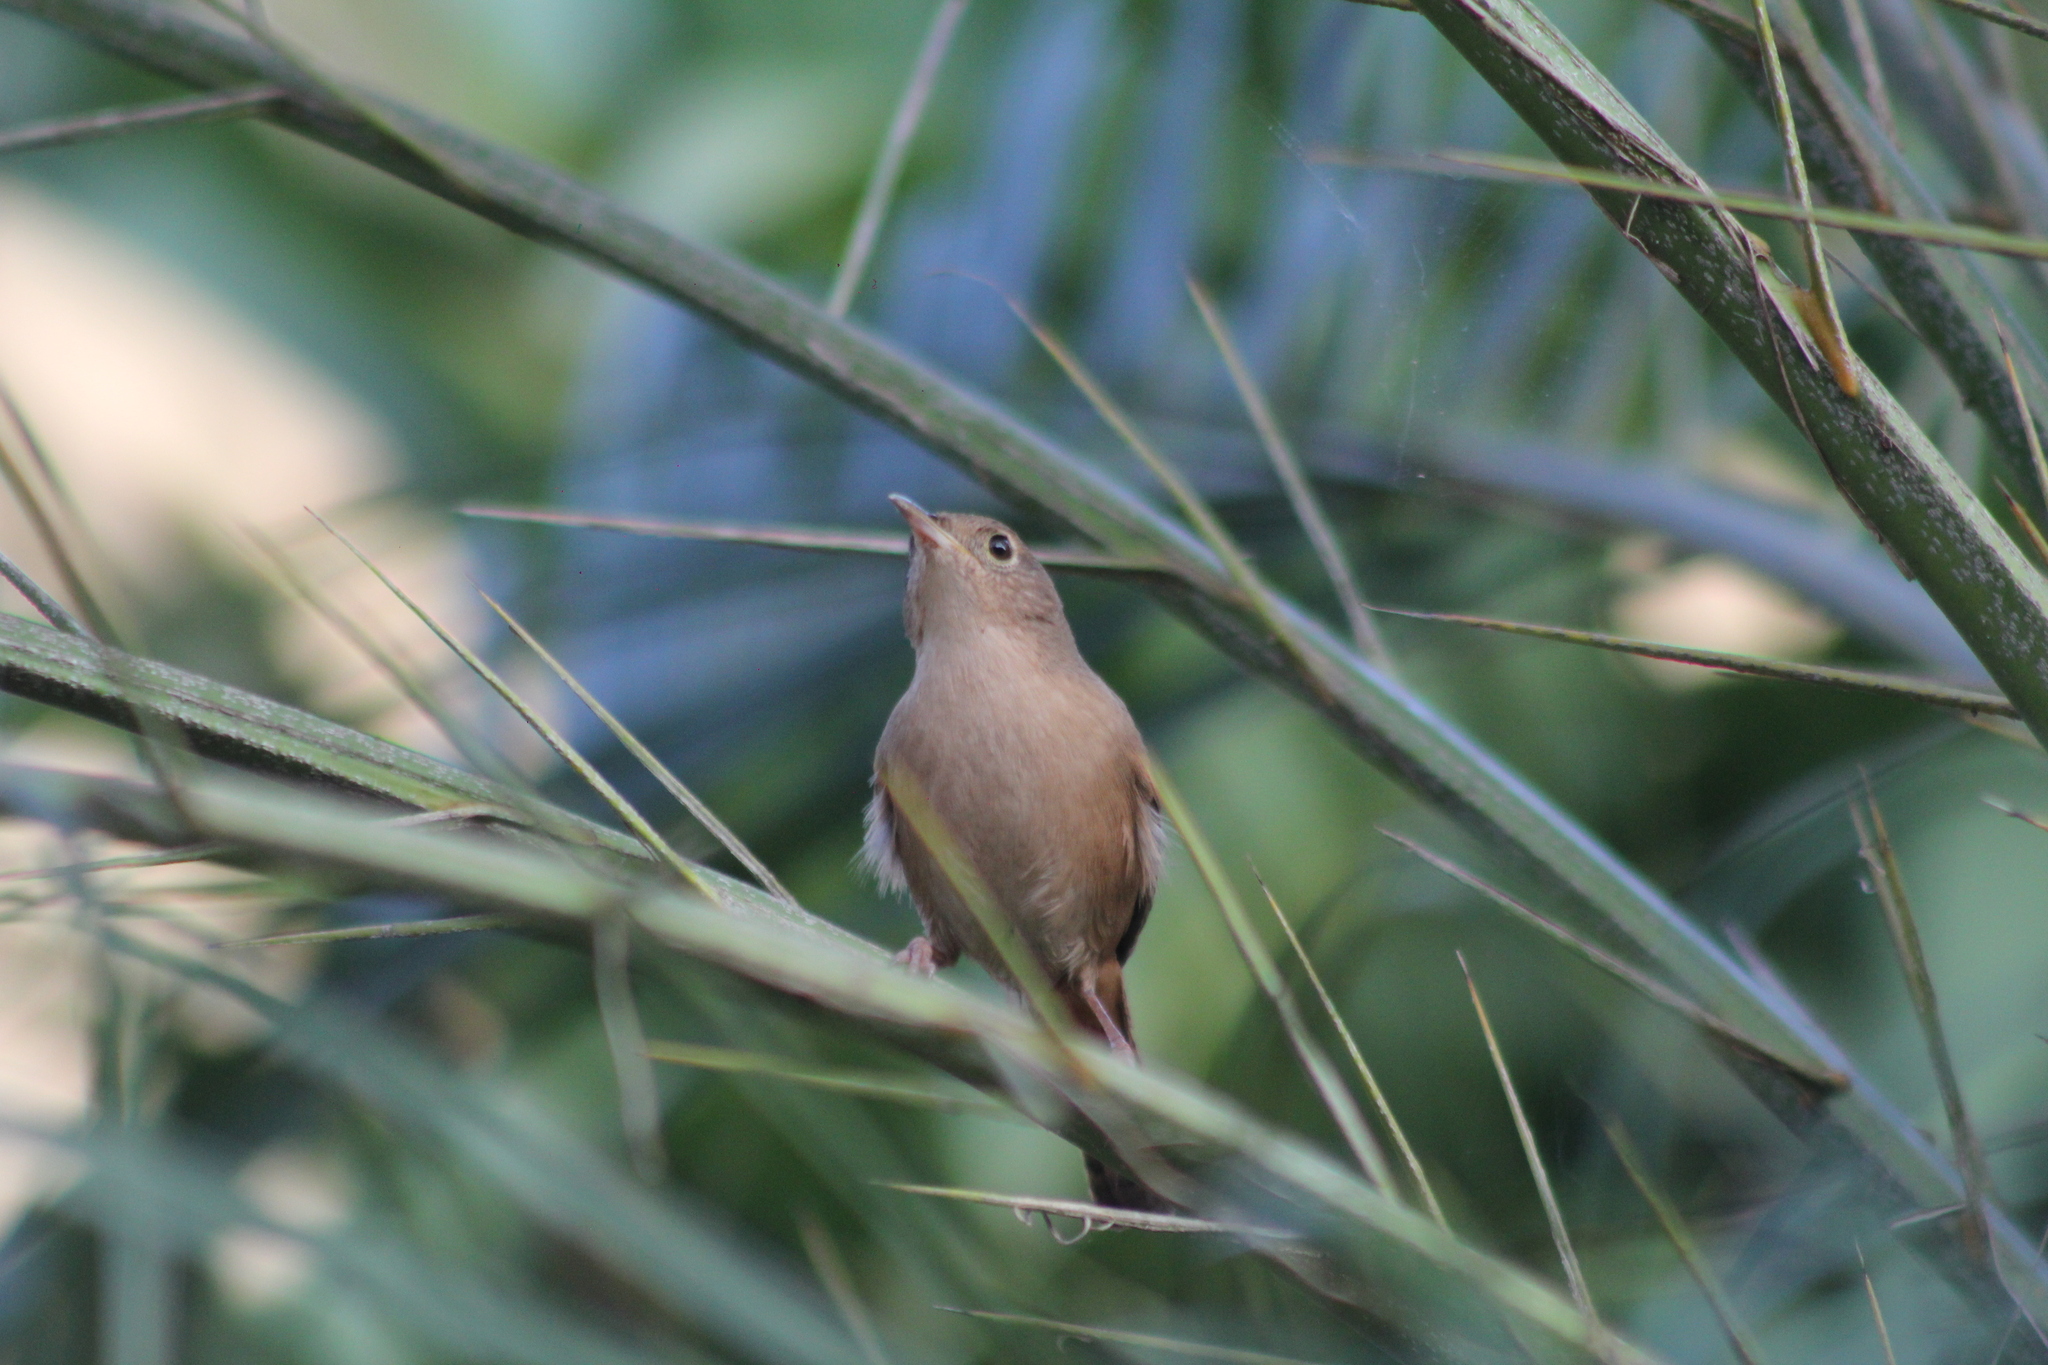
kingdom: Animalia
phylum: Chordata
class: Aves
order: Passeriformes
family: Troglodytidae
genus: Troglodytes
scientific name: Troglodytes aedon
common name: House wren
